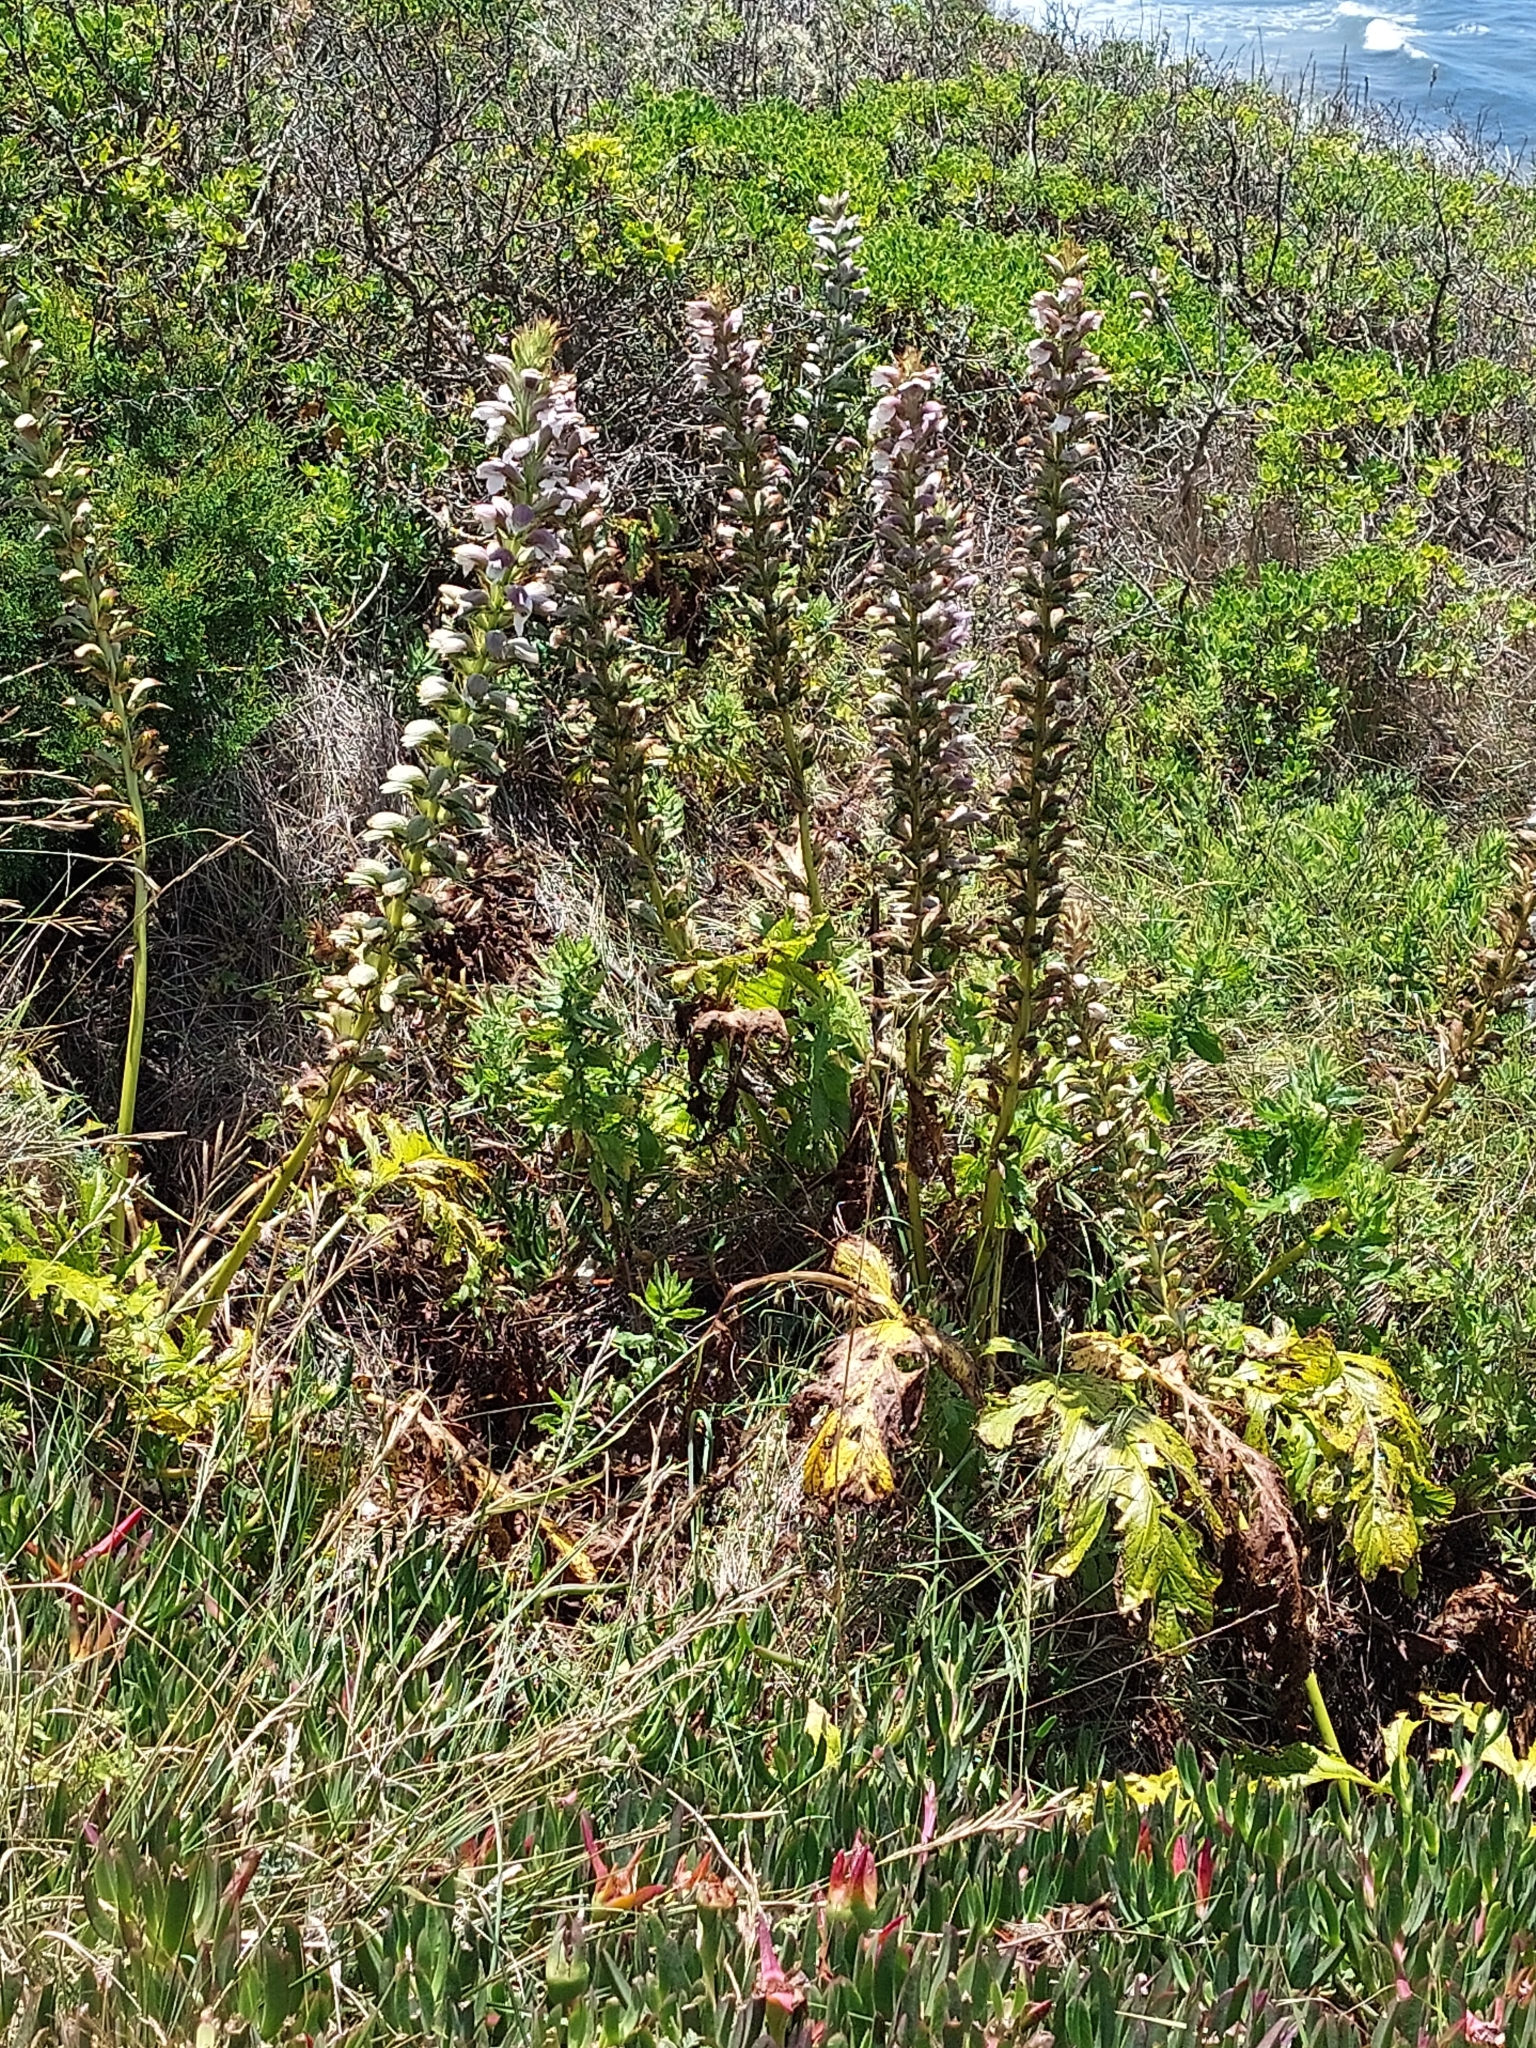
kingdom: Plantae
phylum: Tracheophyta
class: Magnoliopsida
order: Lamiales
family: Acanthaceae
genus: Acanthus
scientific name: Acanthus mollis
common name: Bear's-breech
